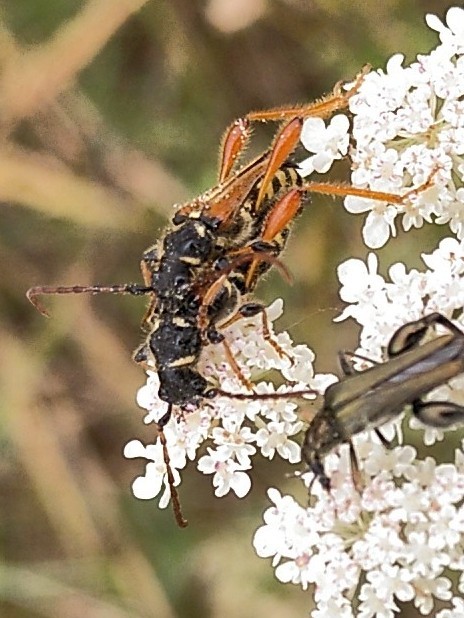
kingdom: Animalia
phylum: Arthropoda
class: Insecta
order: Coleoptera
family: Cerambycidae
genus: Stenopterus
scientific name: Stenopterus rufus
